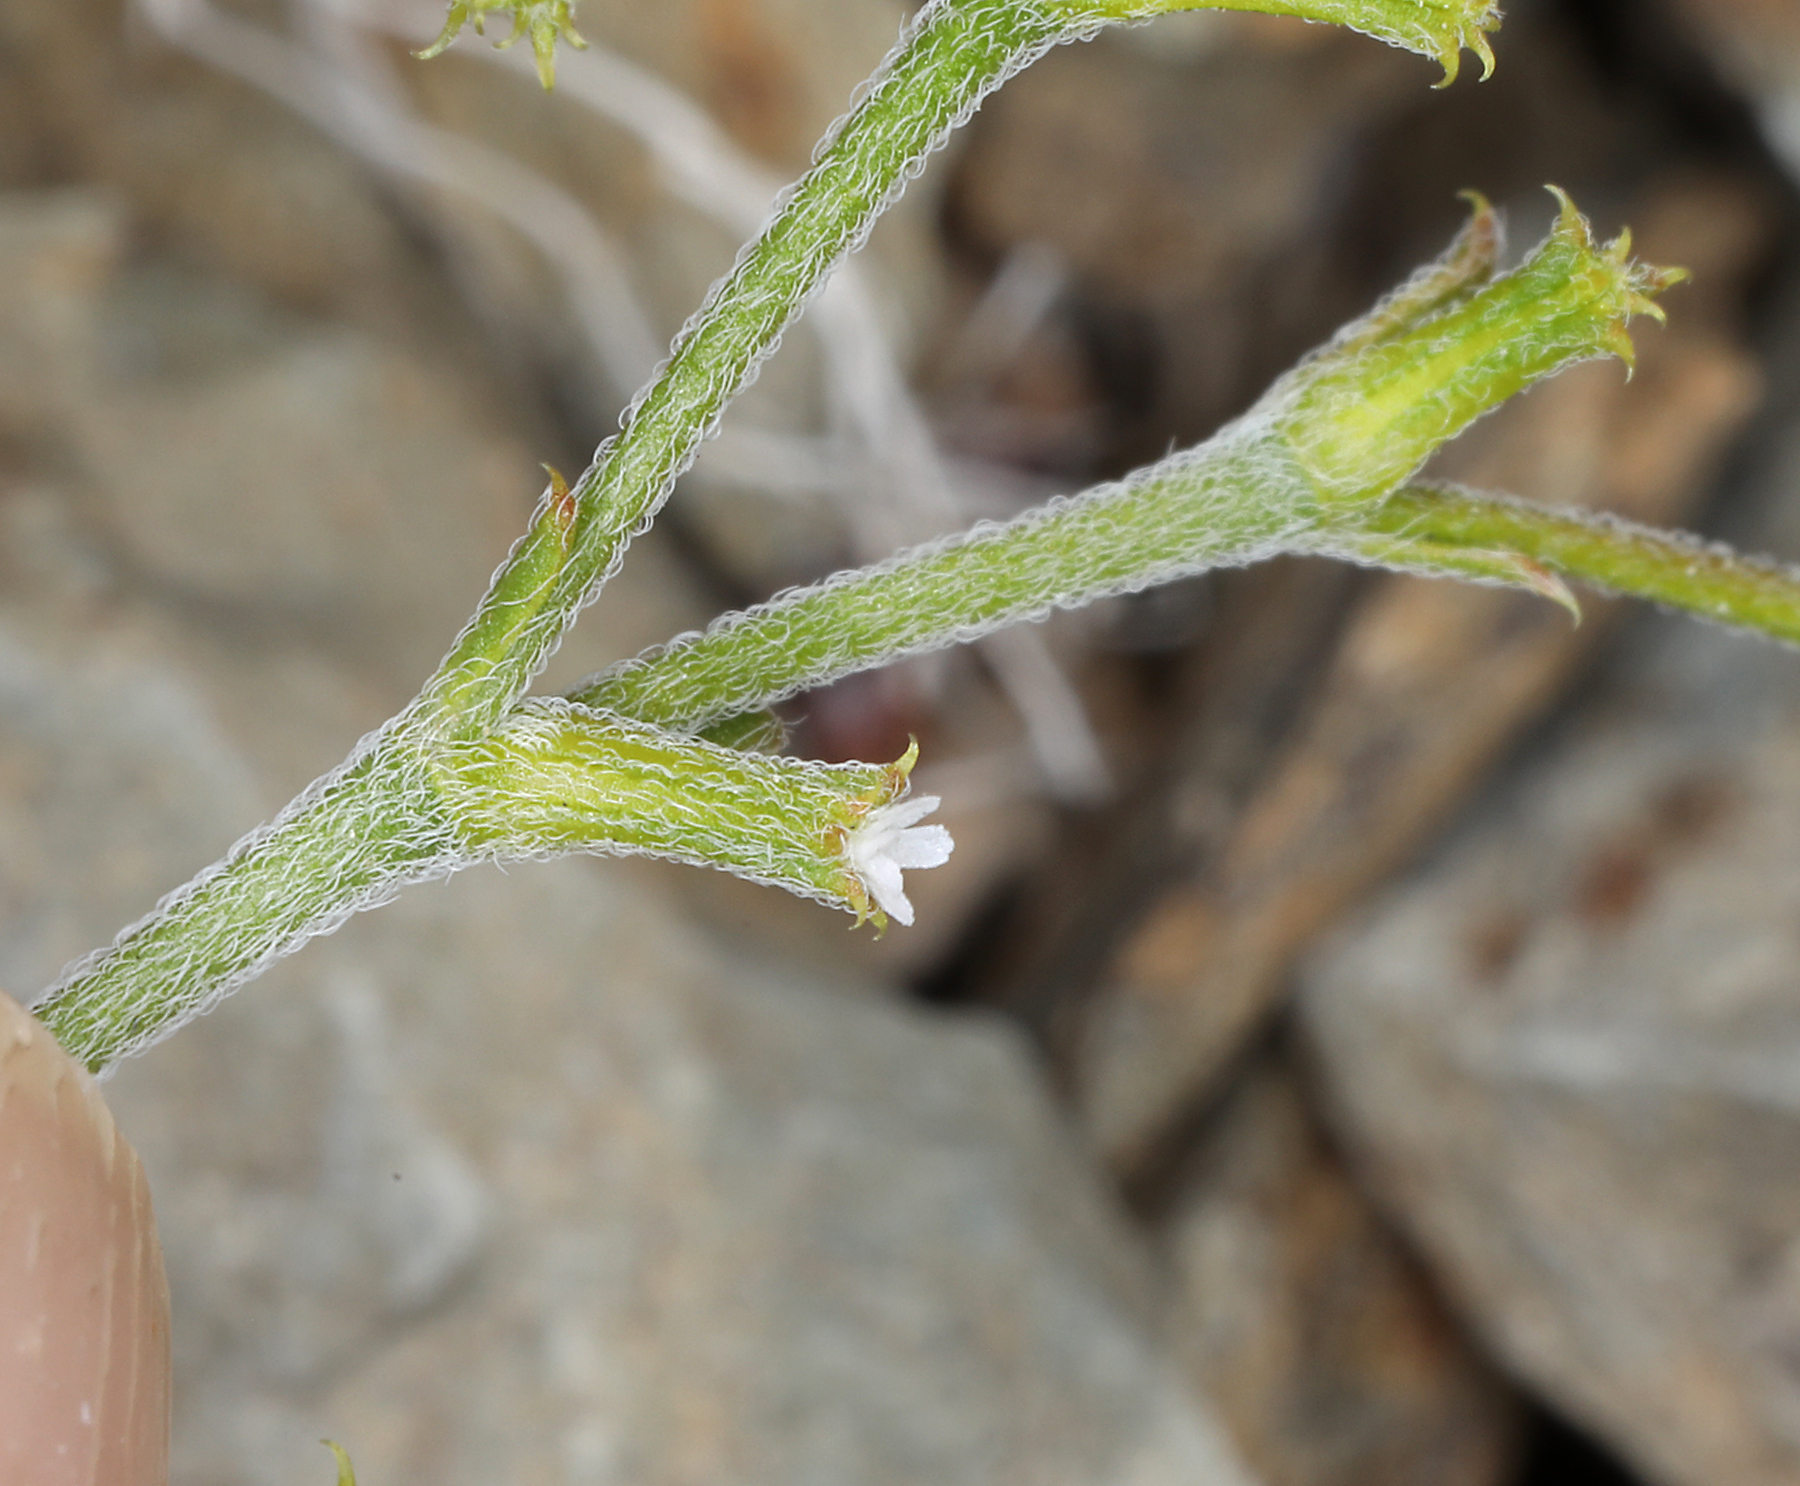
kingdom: Plantae
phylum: Tracheophyta
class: Magnoliopsida
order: Caryophyllales
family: Polygonaceae
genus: Chorizanthe
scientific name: Chorizanthe brevicornu
